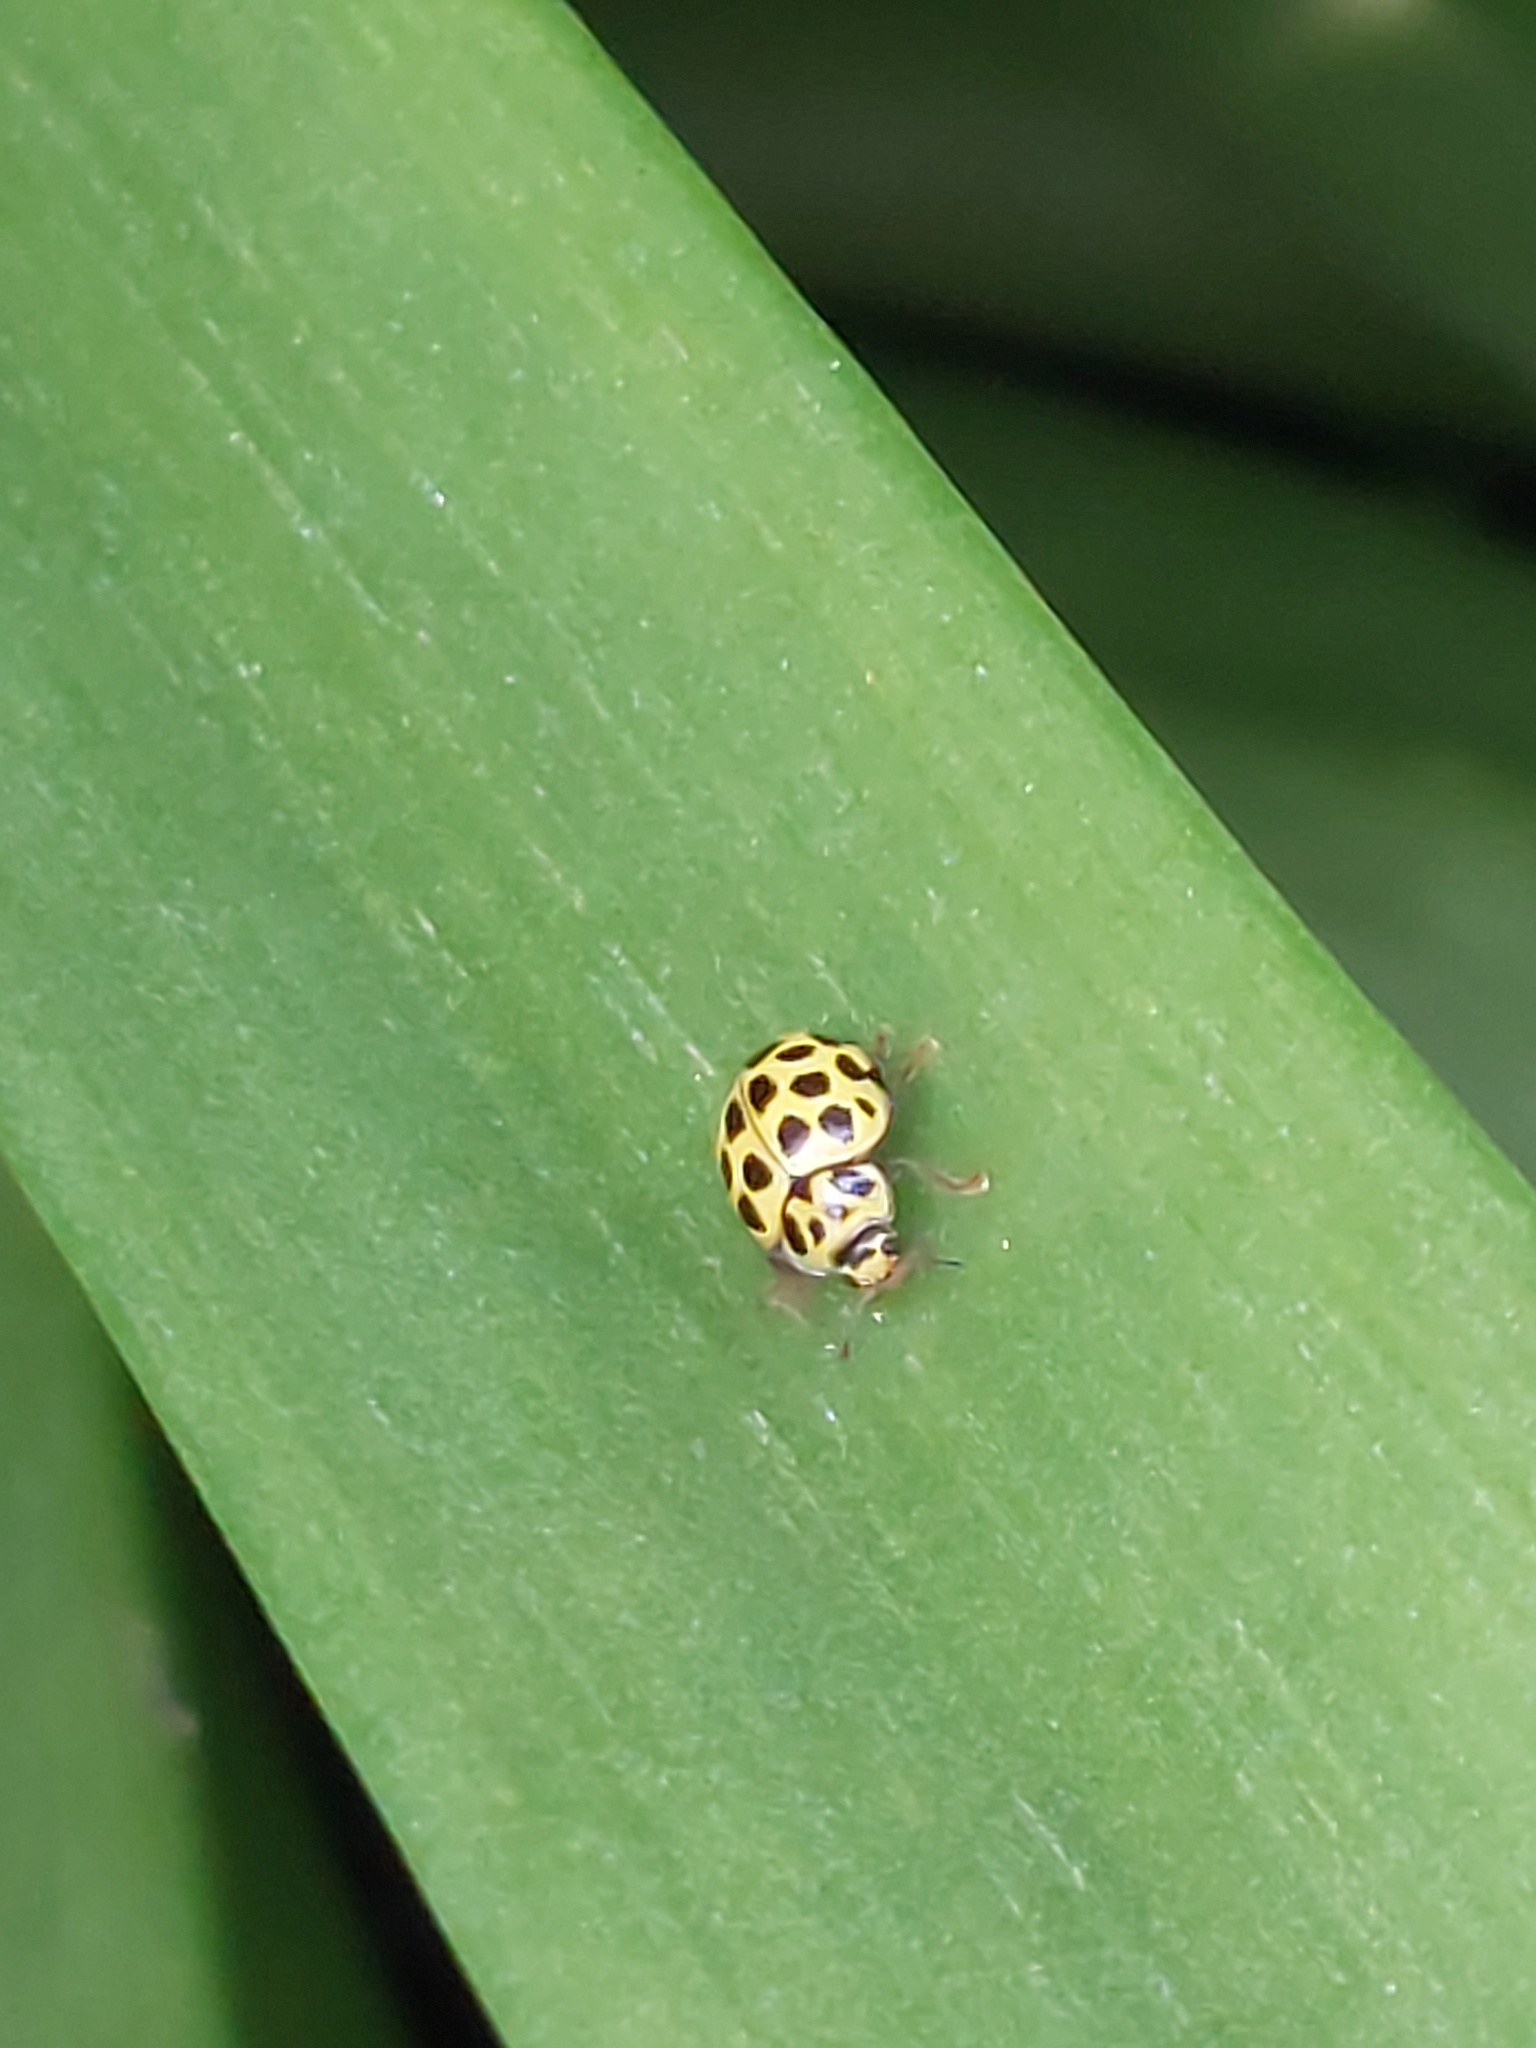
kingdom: Animalia
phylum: Arthropoda
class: Insecta
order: Coleoptera
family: Coccinellidae
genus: Psyllobora
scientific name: Psyllobora vigintiduopunctata
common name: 22-spot ladybird
